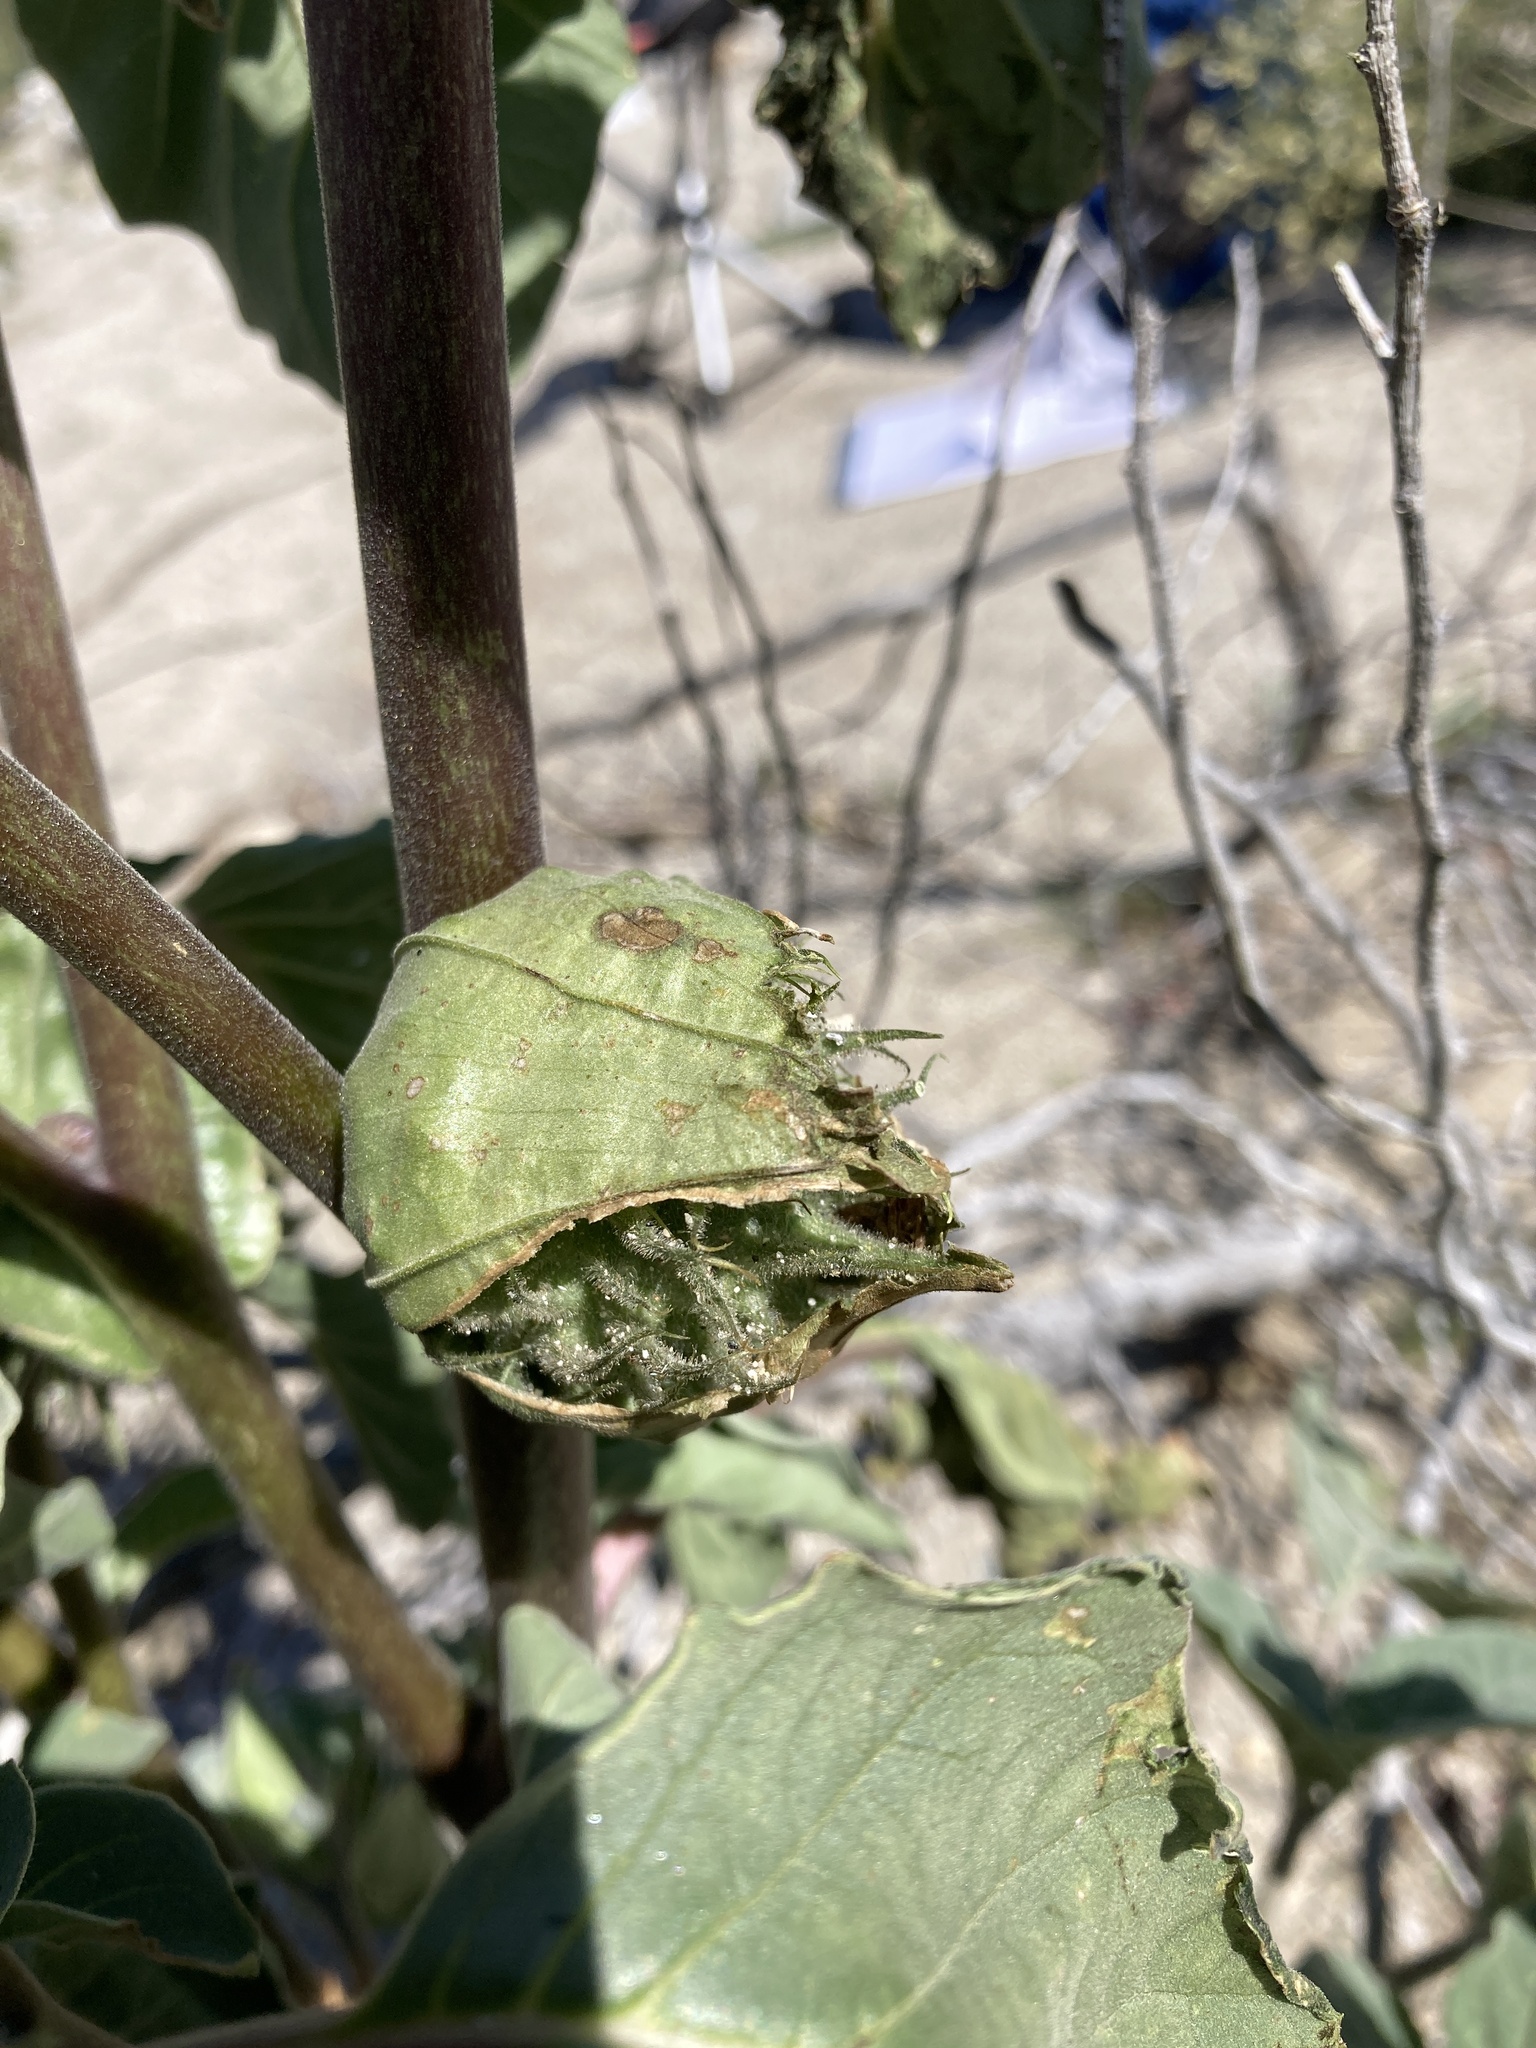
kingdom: Plantae
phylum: Tracheophyta
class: Magnoliopsida
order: Solanales
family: Solanaceae
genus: Datura
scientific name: Datura discolor
